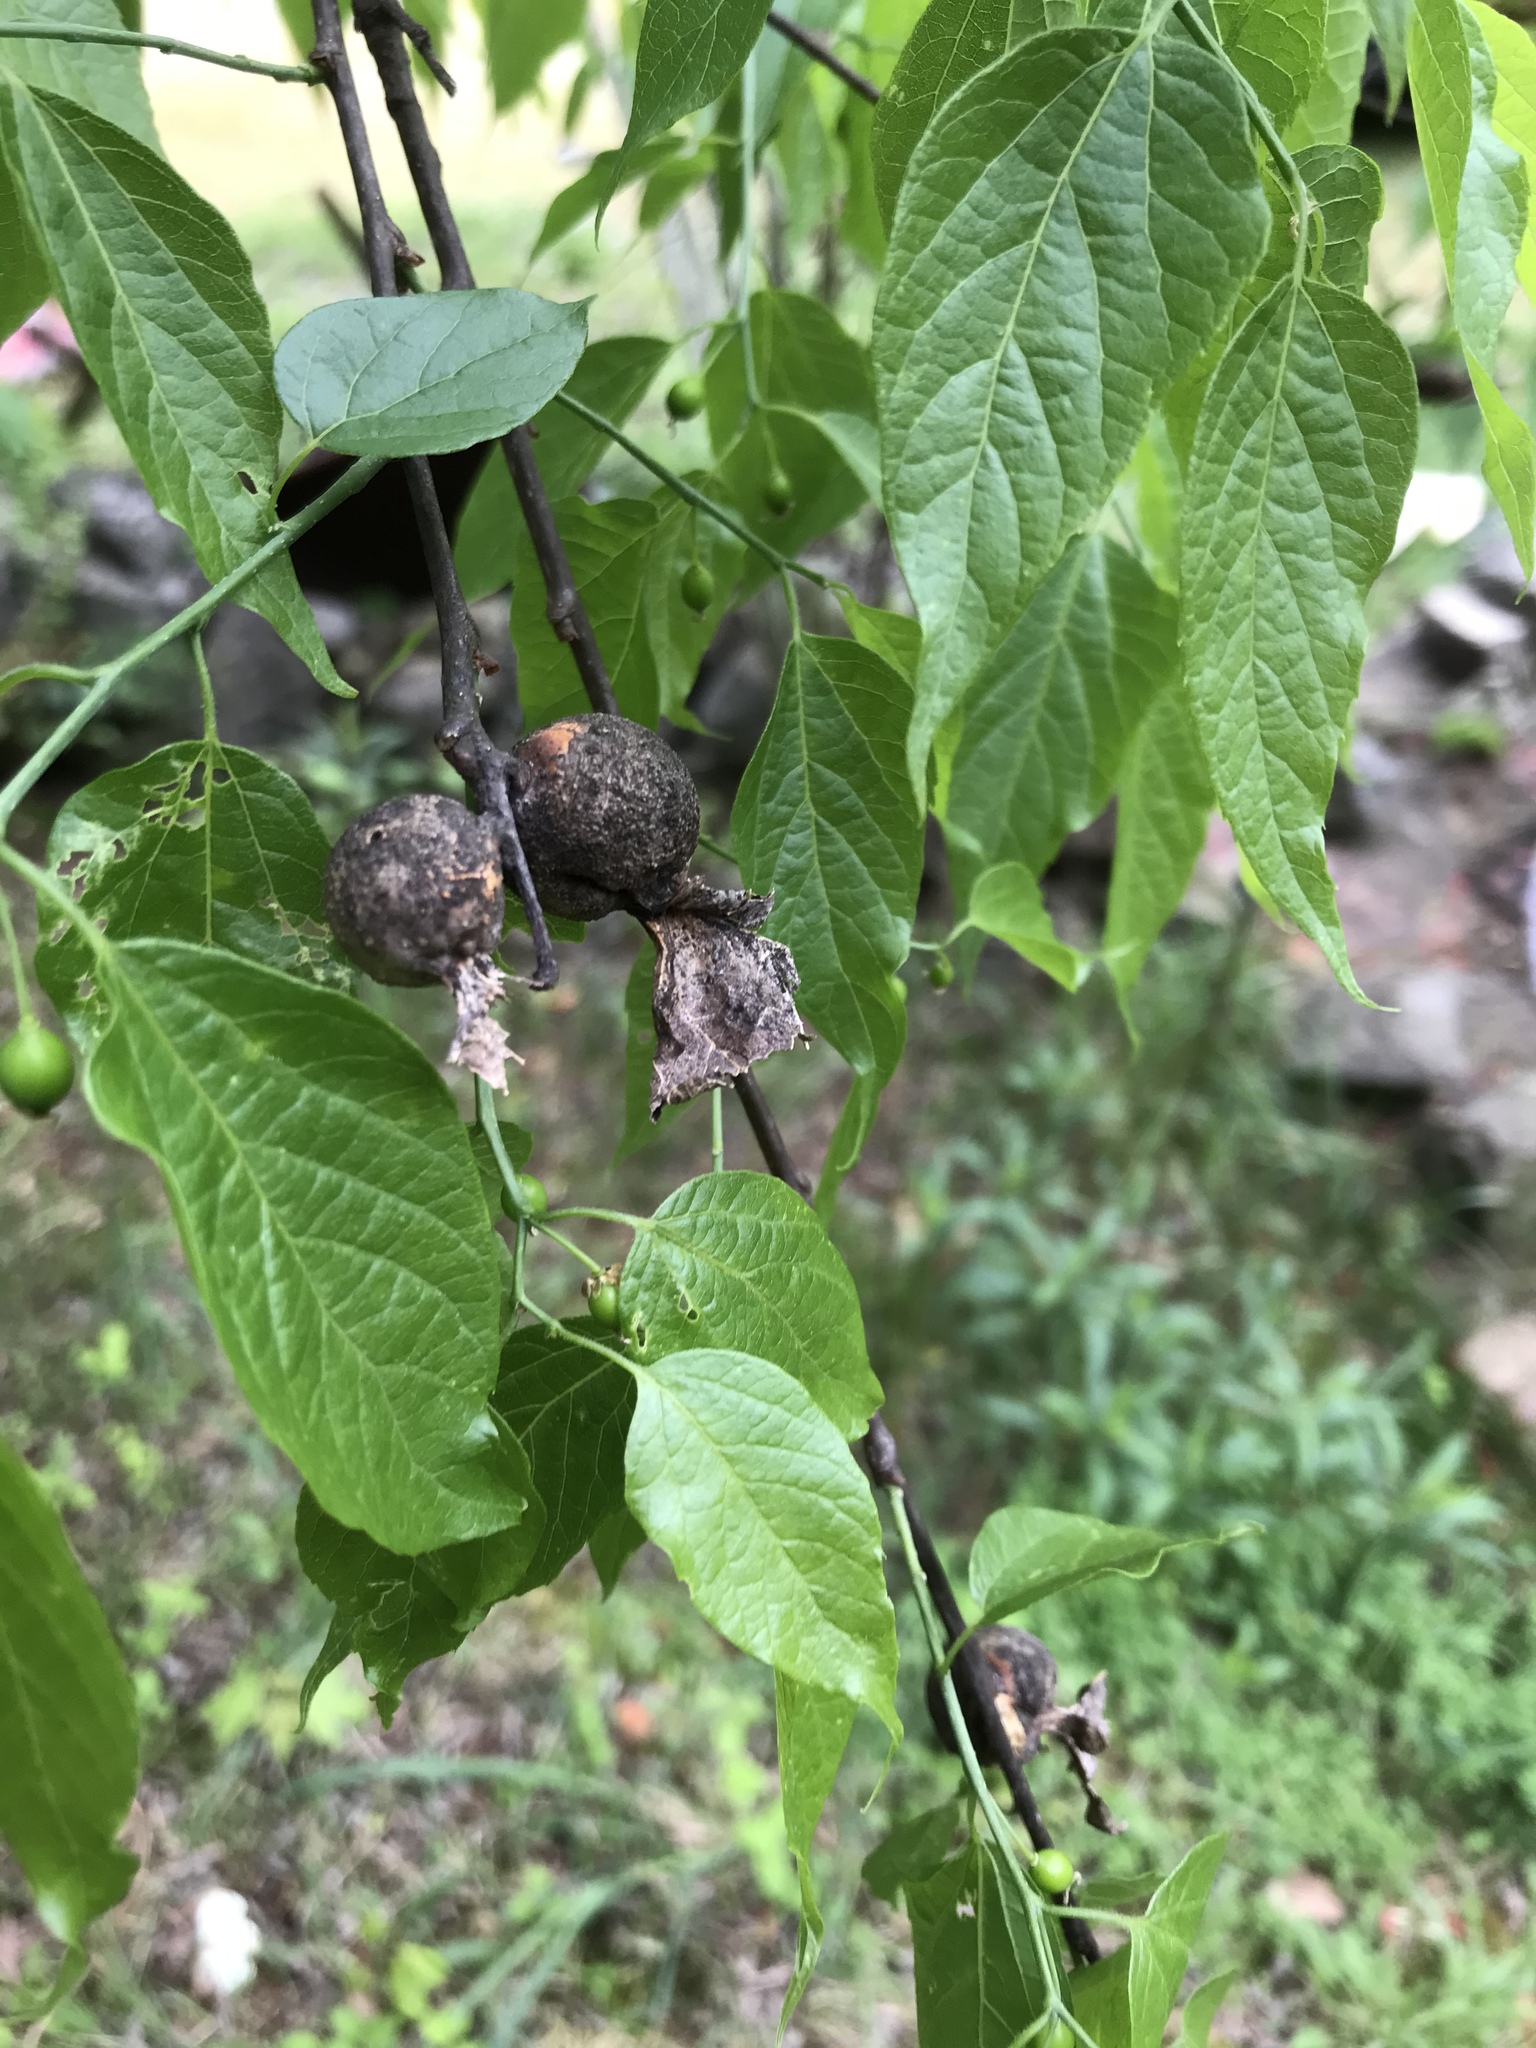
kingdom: Animalia
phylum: Arthropoda
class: Insecta
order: Hemiptera
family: Aphalaridae
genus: Pachypsylla
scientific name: Pachypsylla venusta
